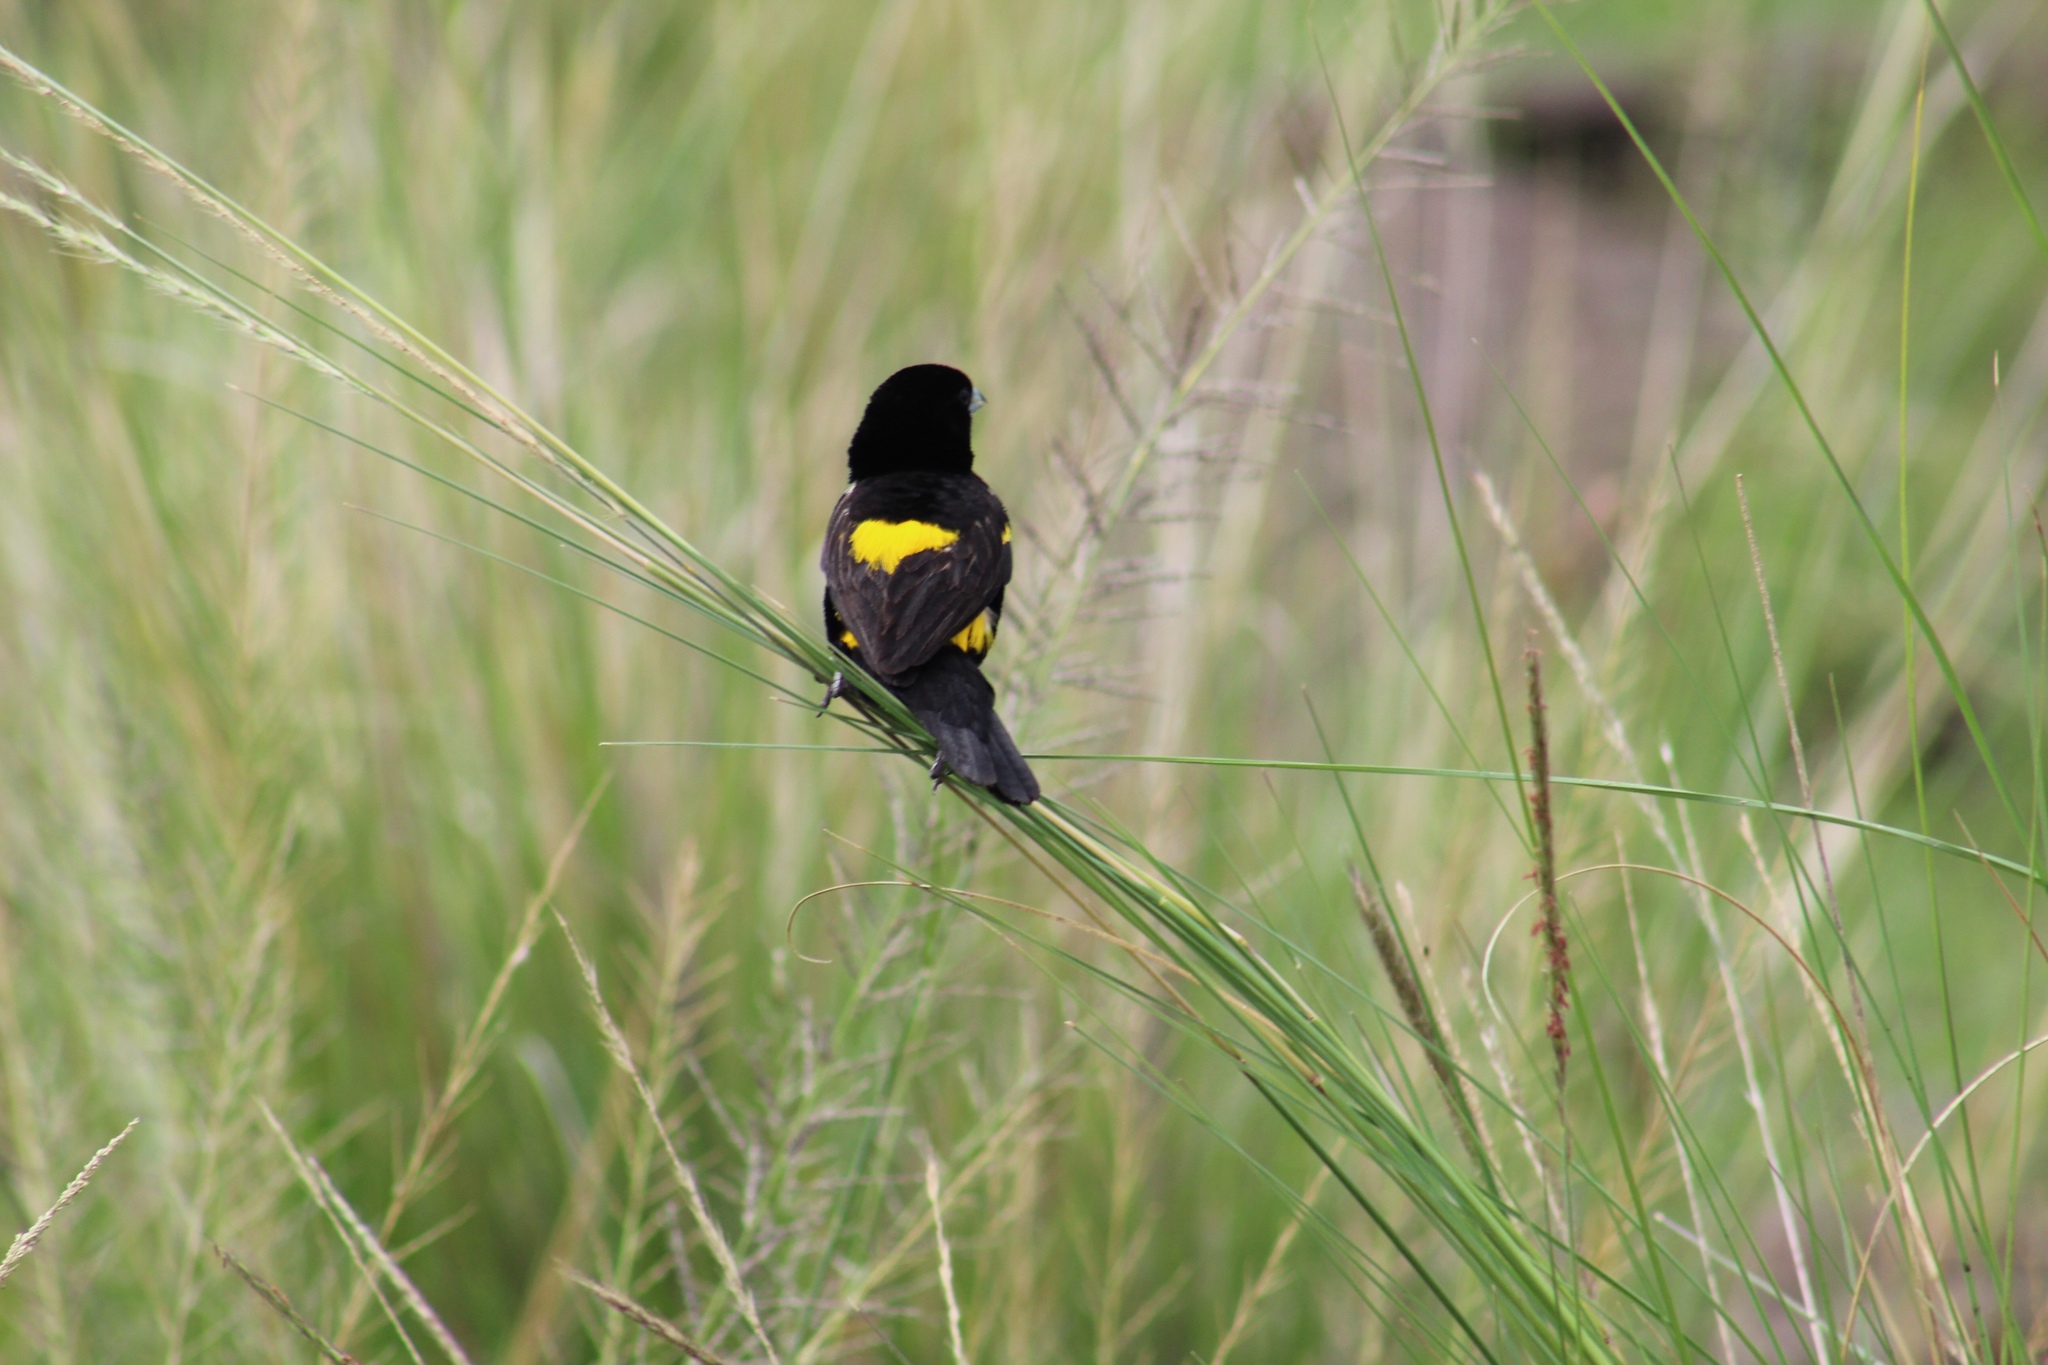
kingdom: Animalia
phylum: Chordata
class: Aves
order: Passeriformes
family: Ploceidae
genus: Euplectes
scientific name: Euplectes capensis
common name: Yellow bishop
